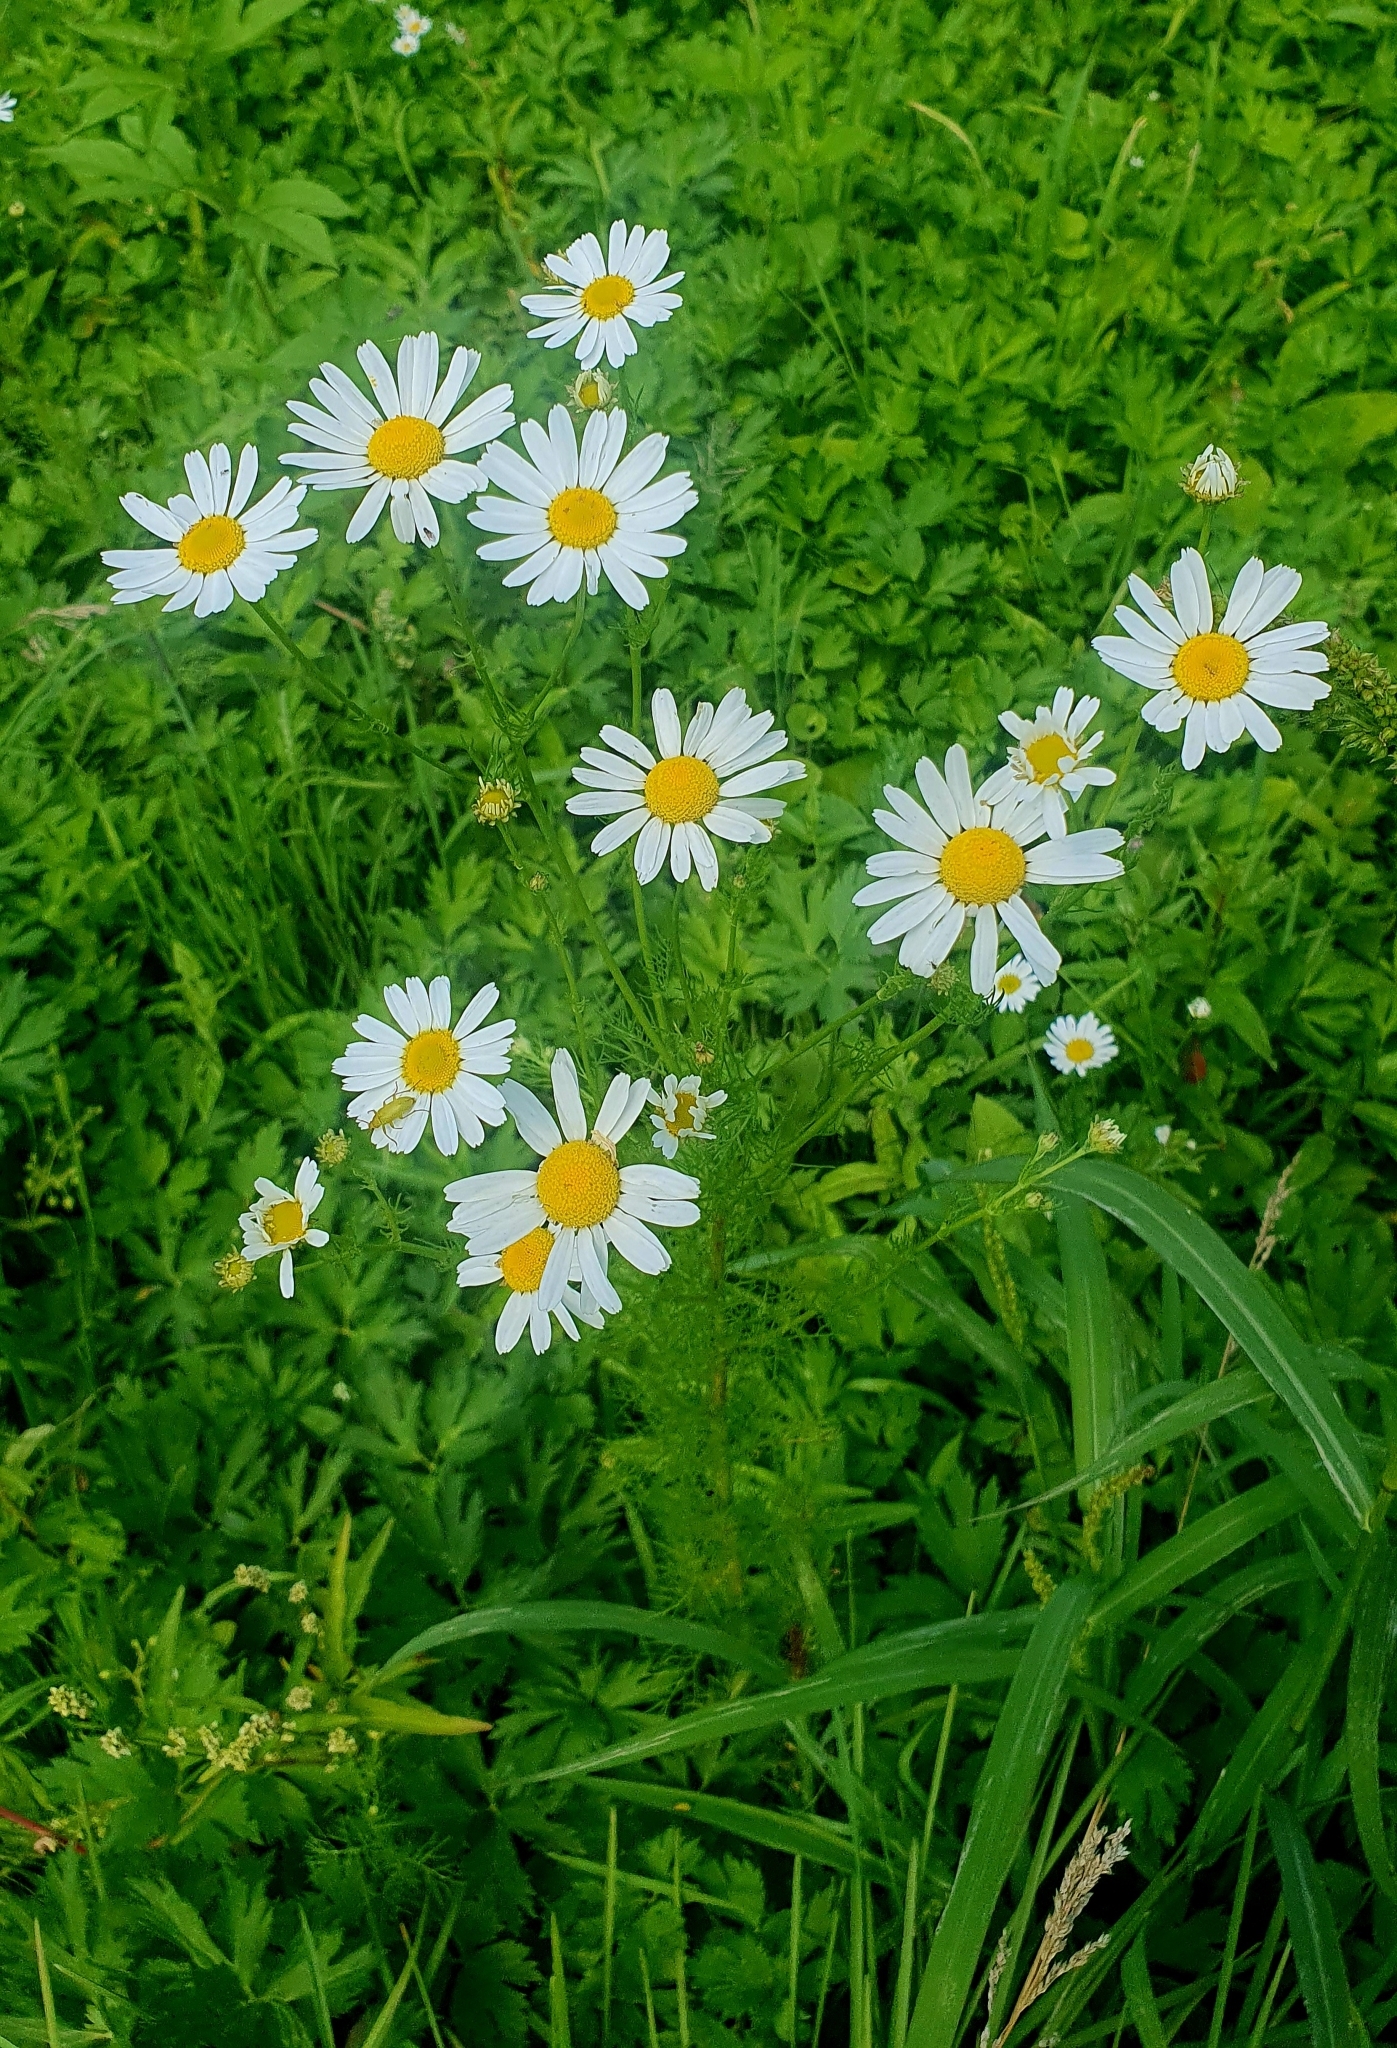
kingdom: Plantae
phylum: Tracheophyta
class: Magnoliopsida
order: Asterales
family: Asteraceae
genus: Tripleurospermum
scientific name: Tripleurospermum inodorum
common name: Scentless mayweed
